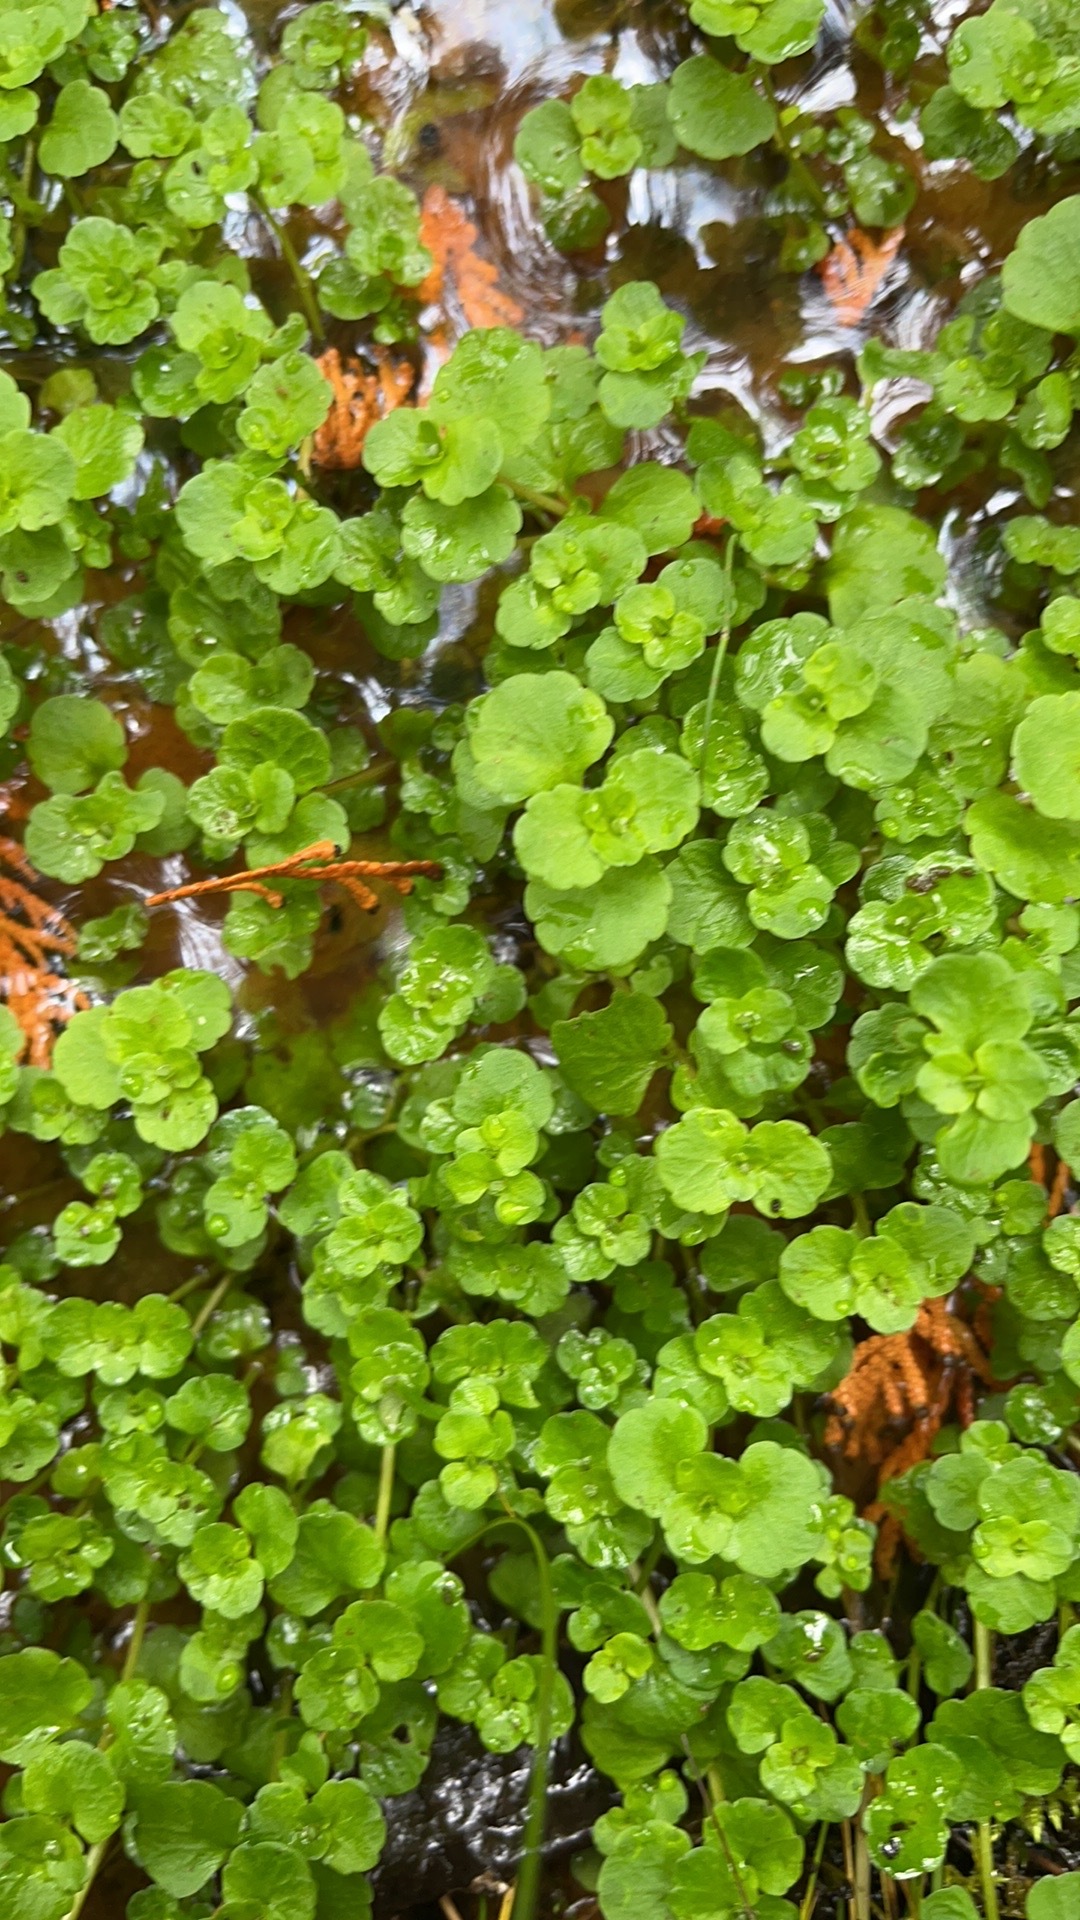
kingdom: Plantae
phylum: Tracheophyta
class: Magnoliopsida
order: Saxifragales
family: Saxifragaceae
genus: Chrysosplenium
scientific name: Chrysosplenium americanum
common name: American golden-saxifrage
